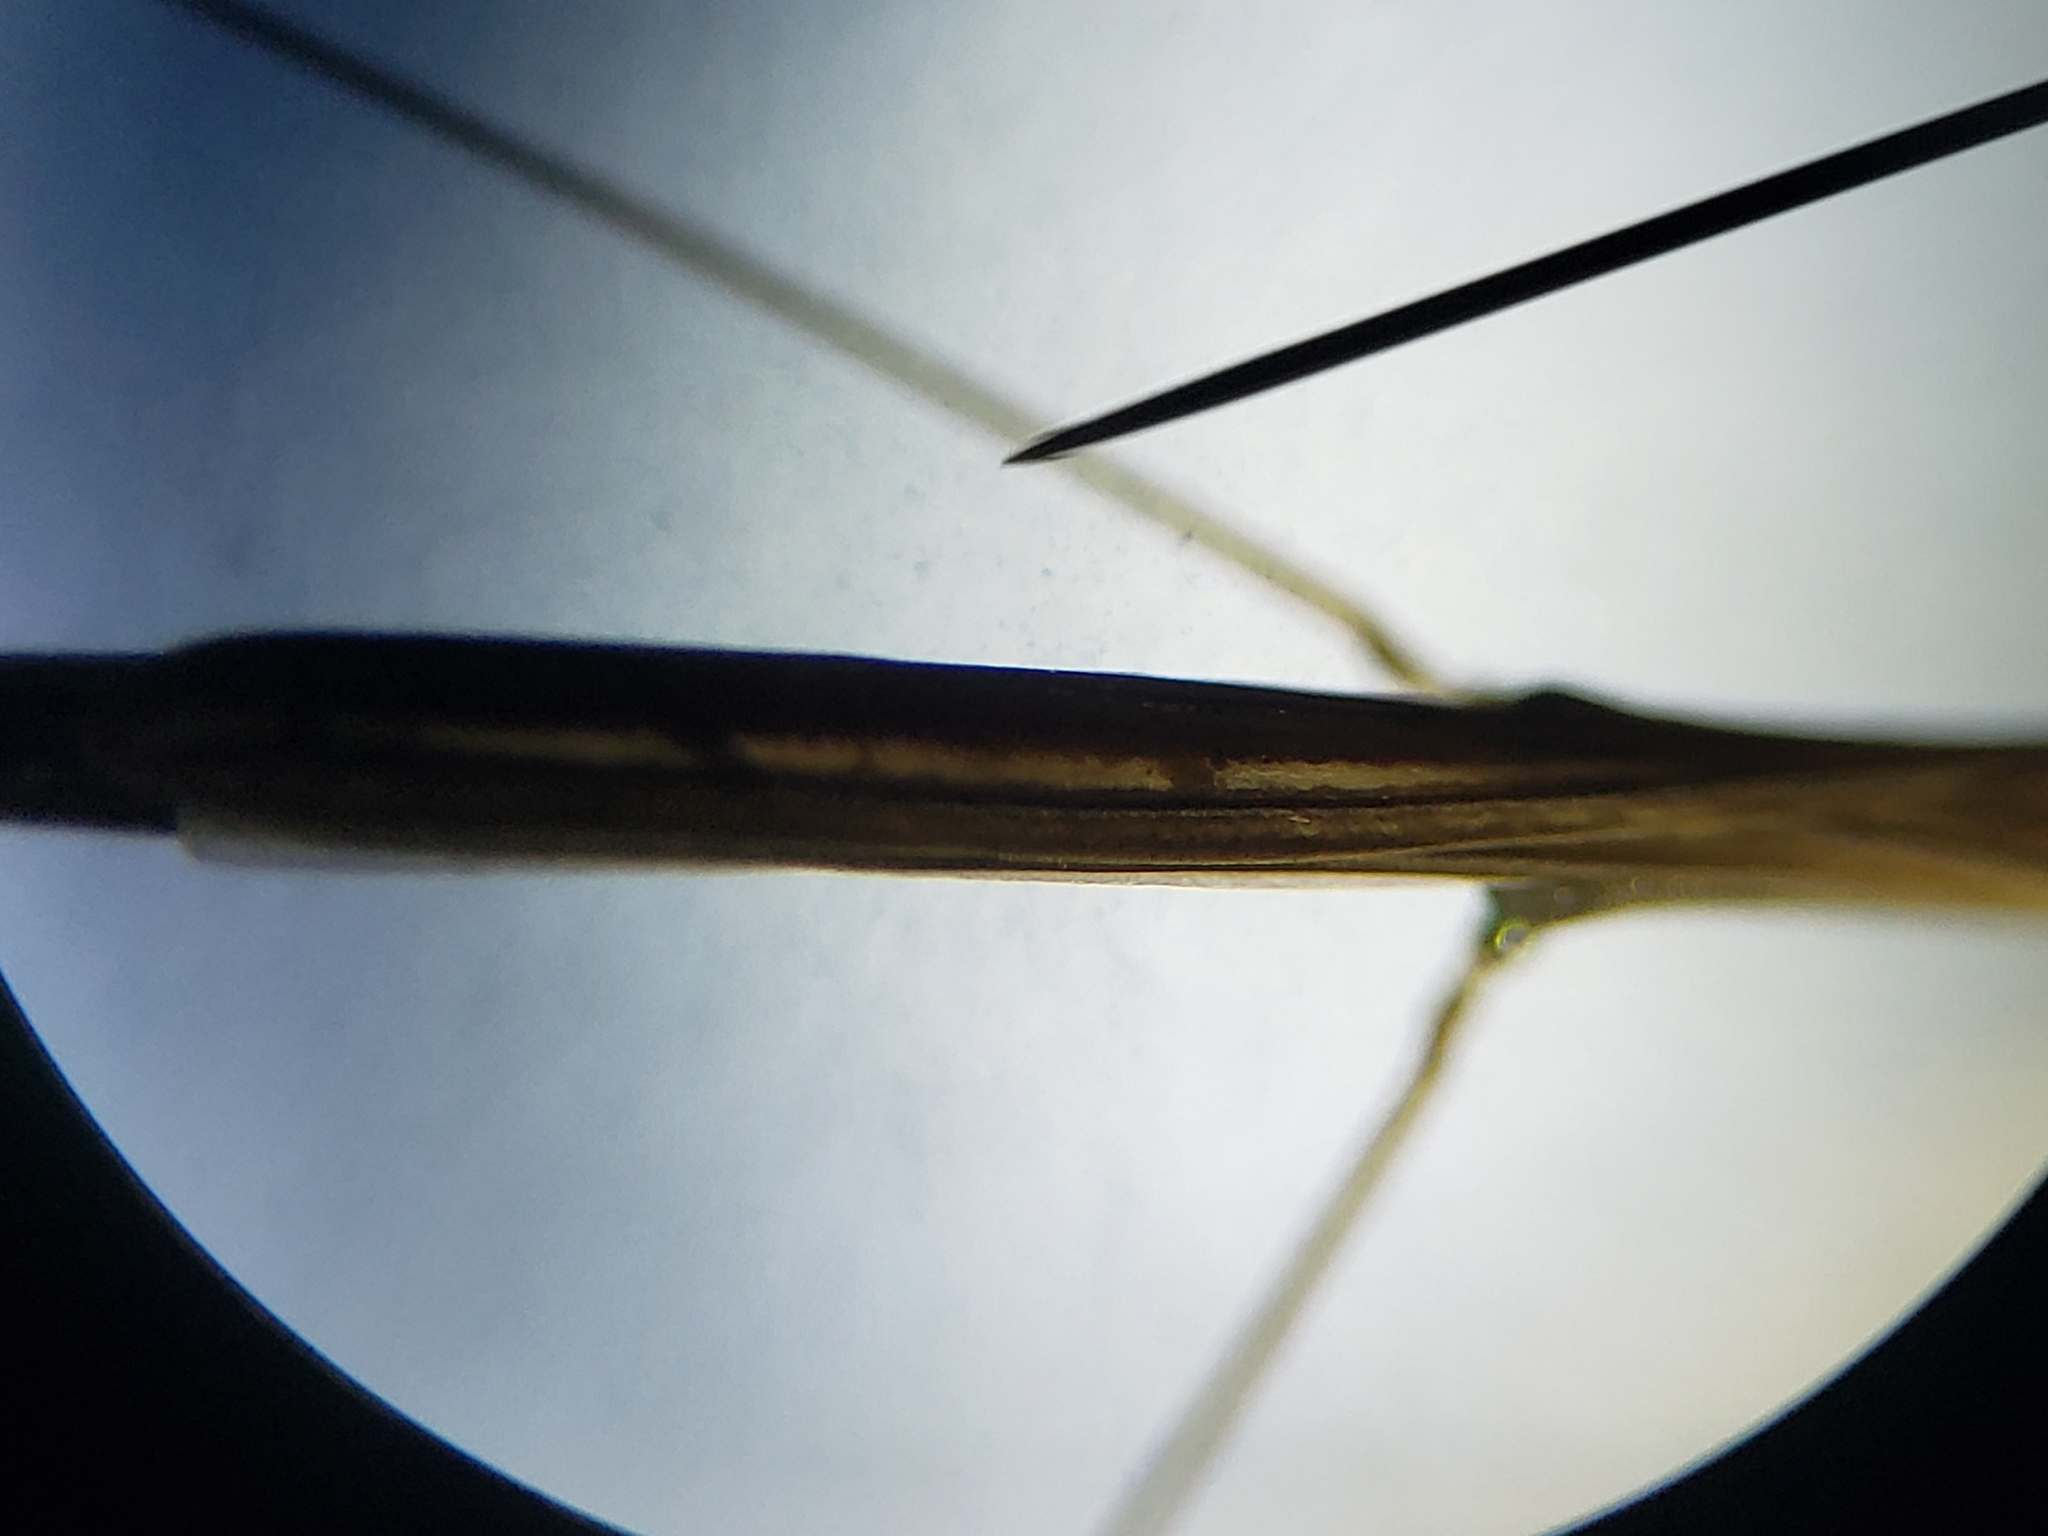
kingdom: Animalia
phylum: Arthropoda
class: Insecta
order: Hemiptera
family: Hydrometridae
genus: Hydrometra
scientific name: Hydrometra australis
